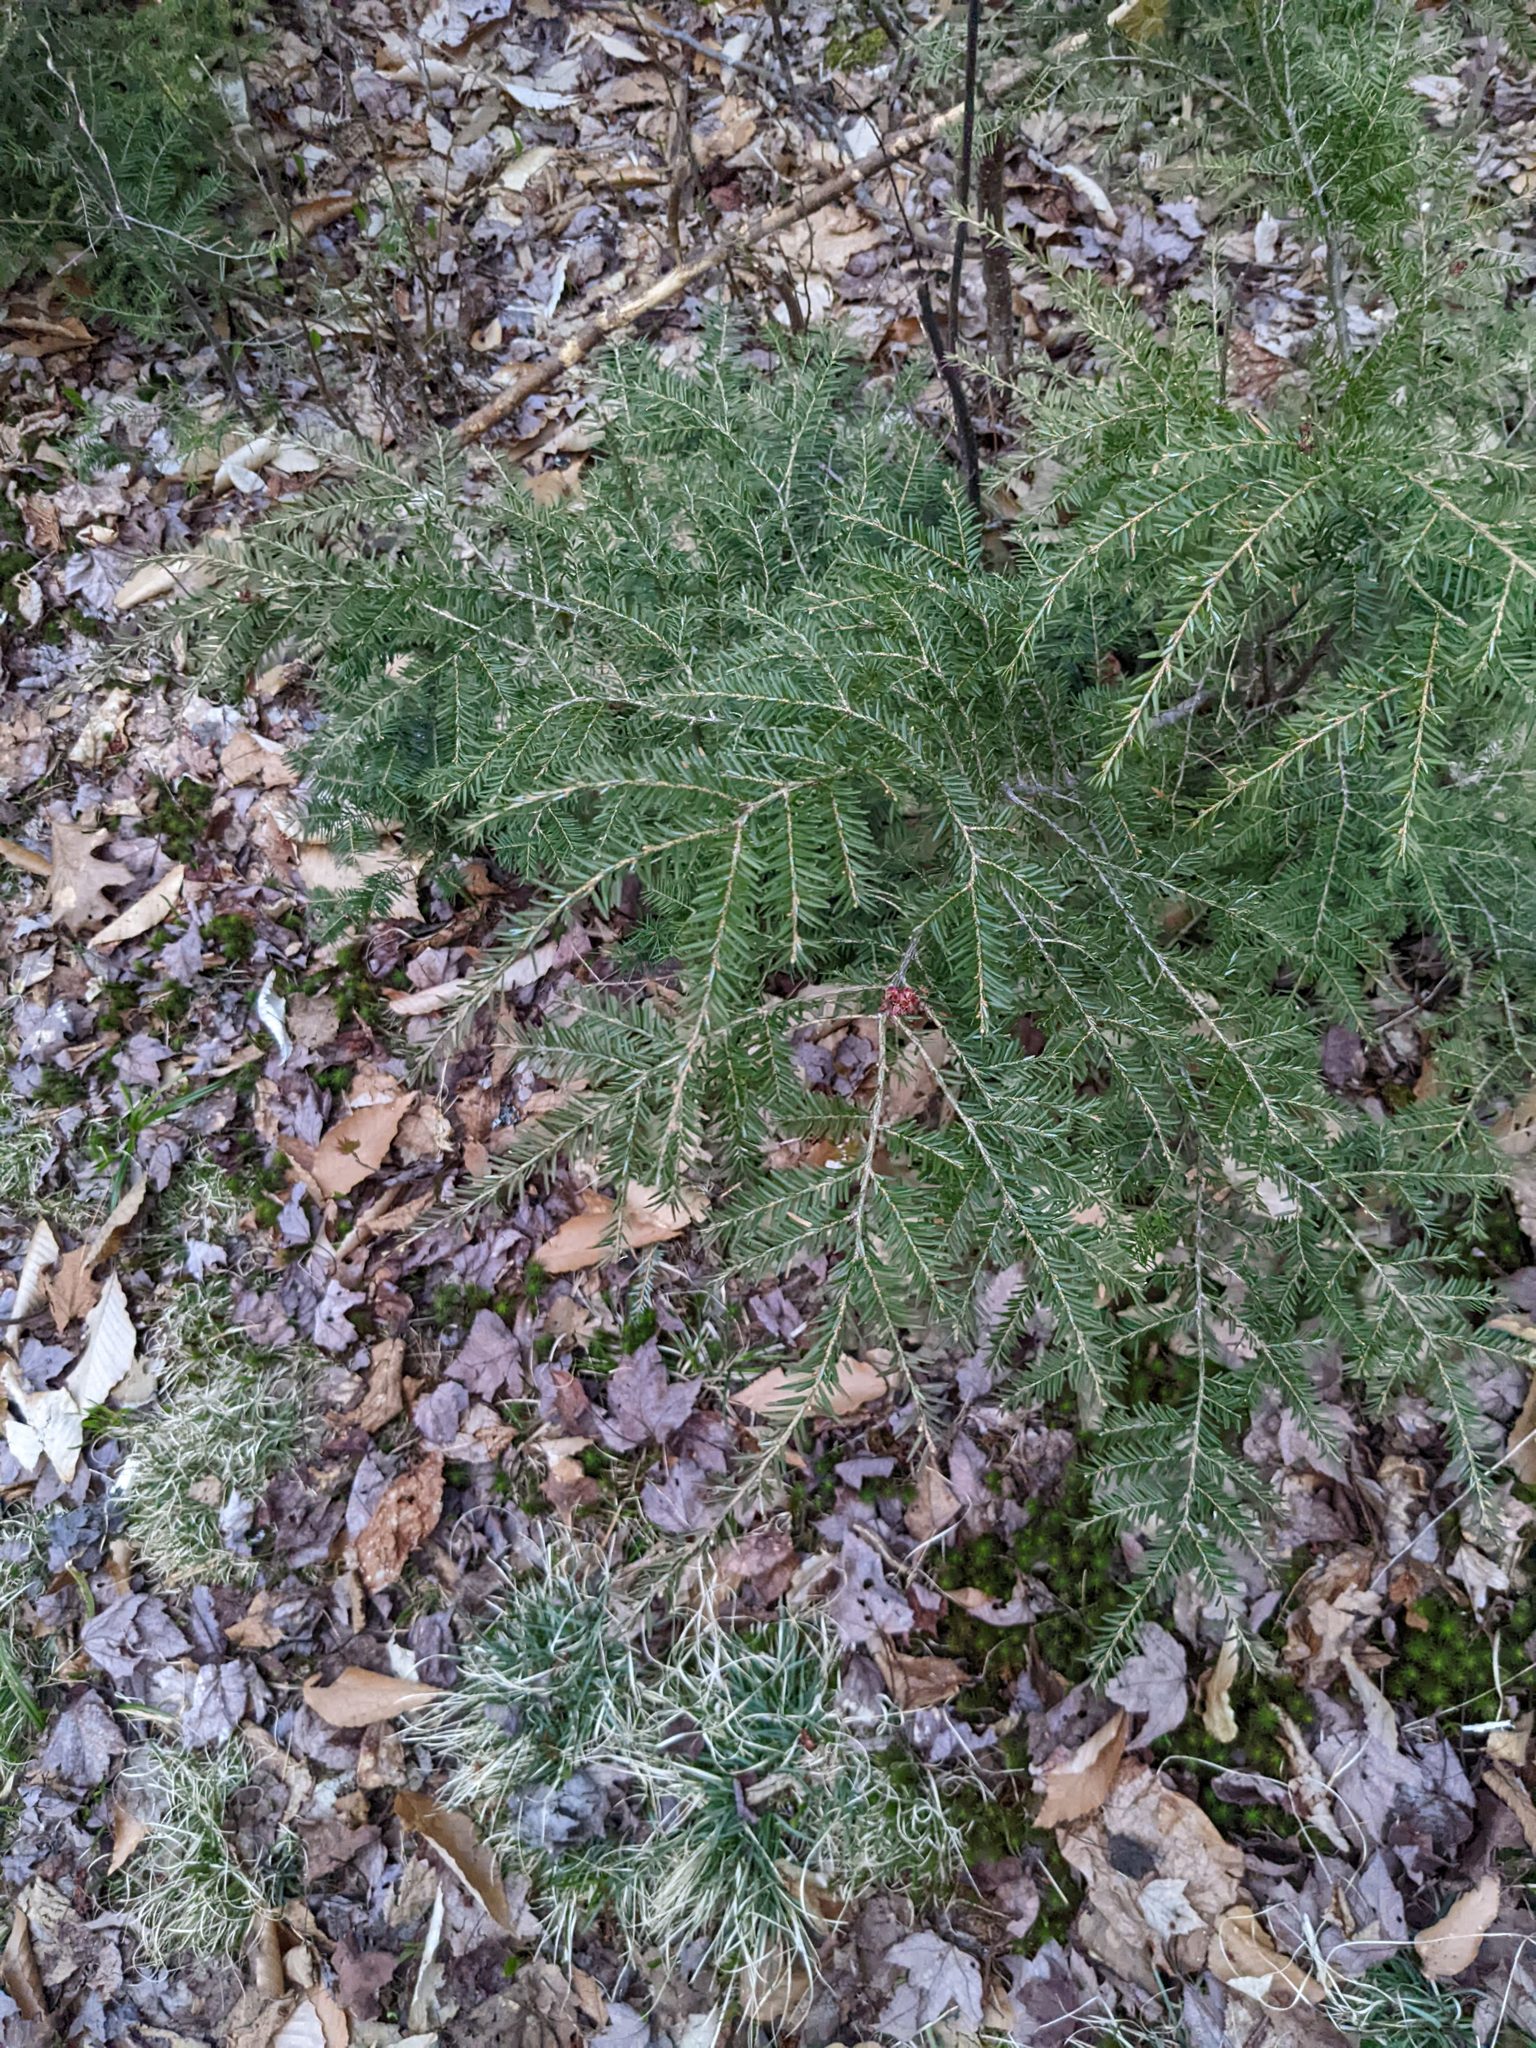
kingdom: Plantae
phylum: Tracheophyta
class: Pinopsida
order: Pinales
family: Pinaceae
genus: Tsuga
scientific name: Tsuga canadensis
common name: Eastern hemlock
